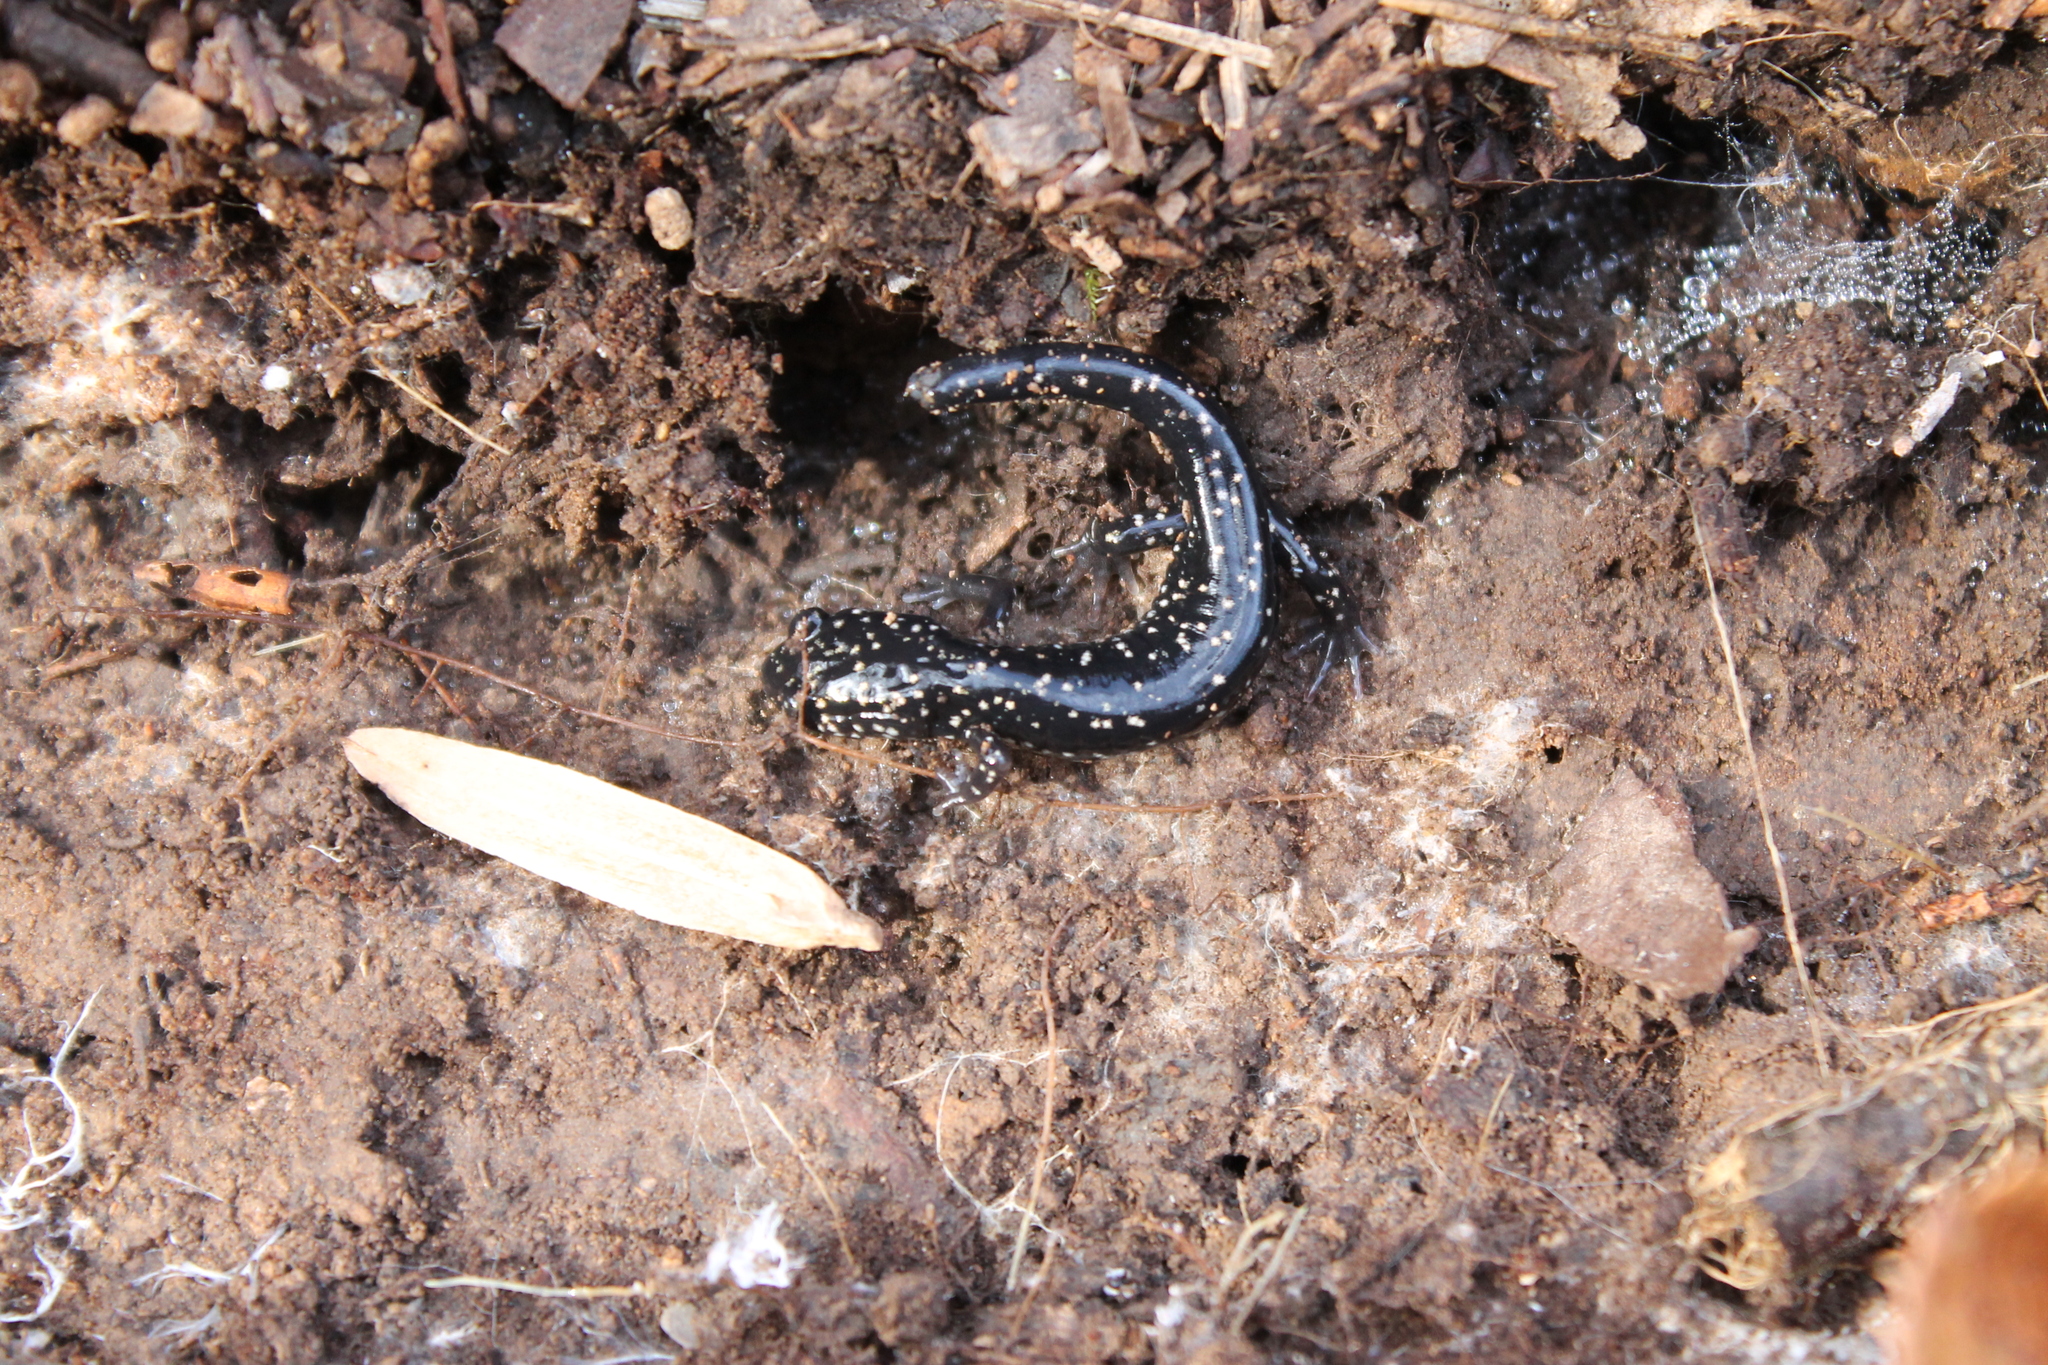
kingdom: Animalia
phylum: Chordata
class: Amphibia
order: Caudata
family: Plethodontidae
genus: Plethodon
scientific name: Plethodon glutinosus
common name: Northern slimy salamander
